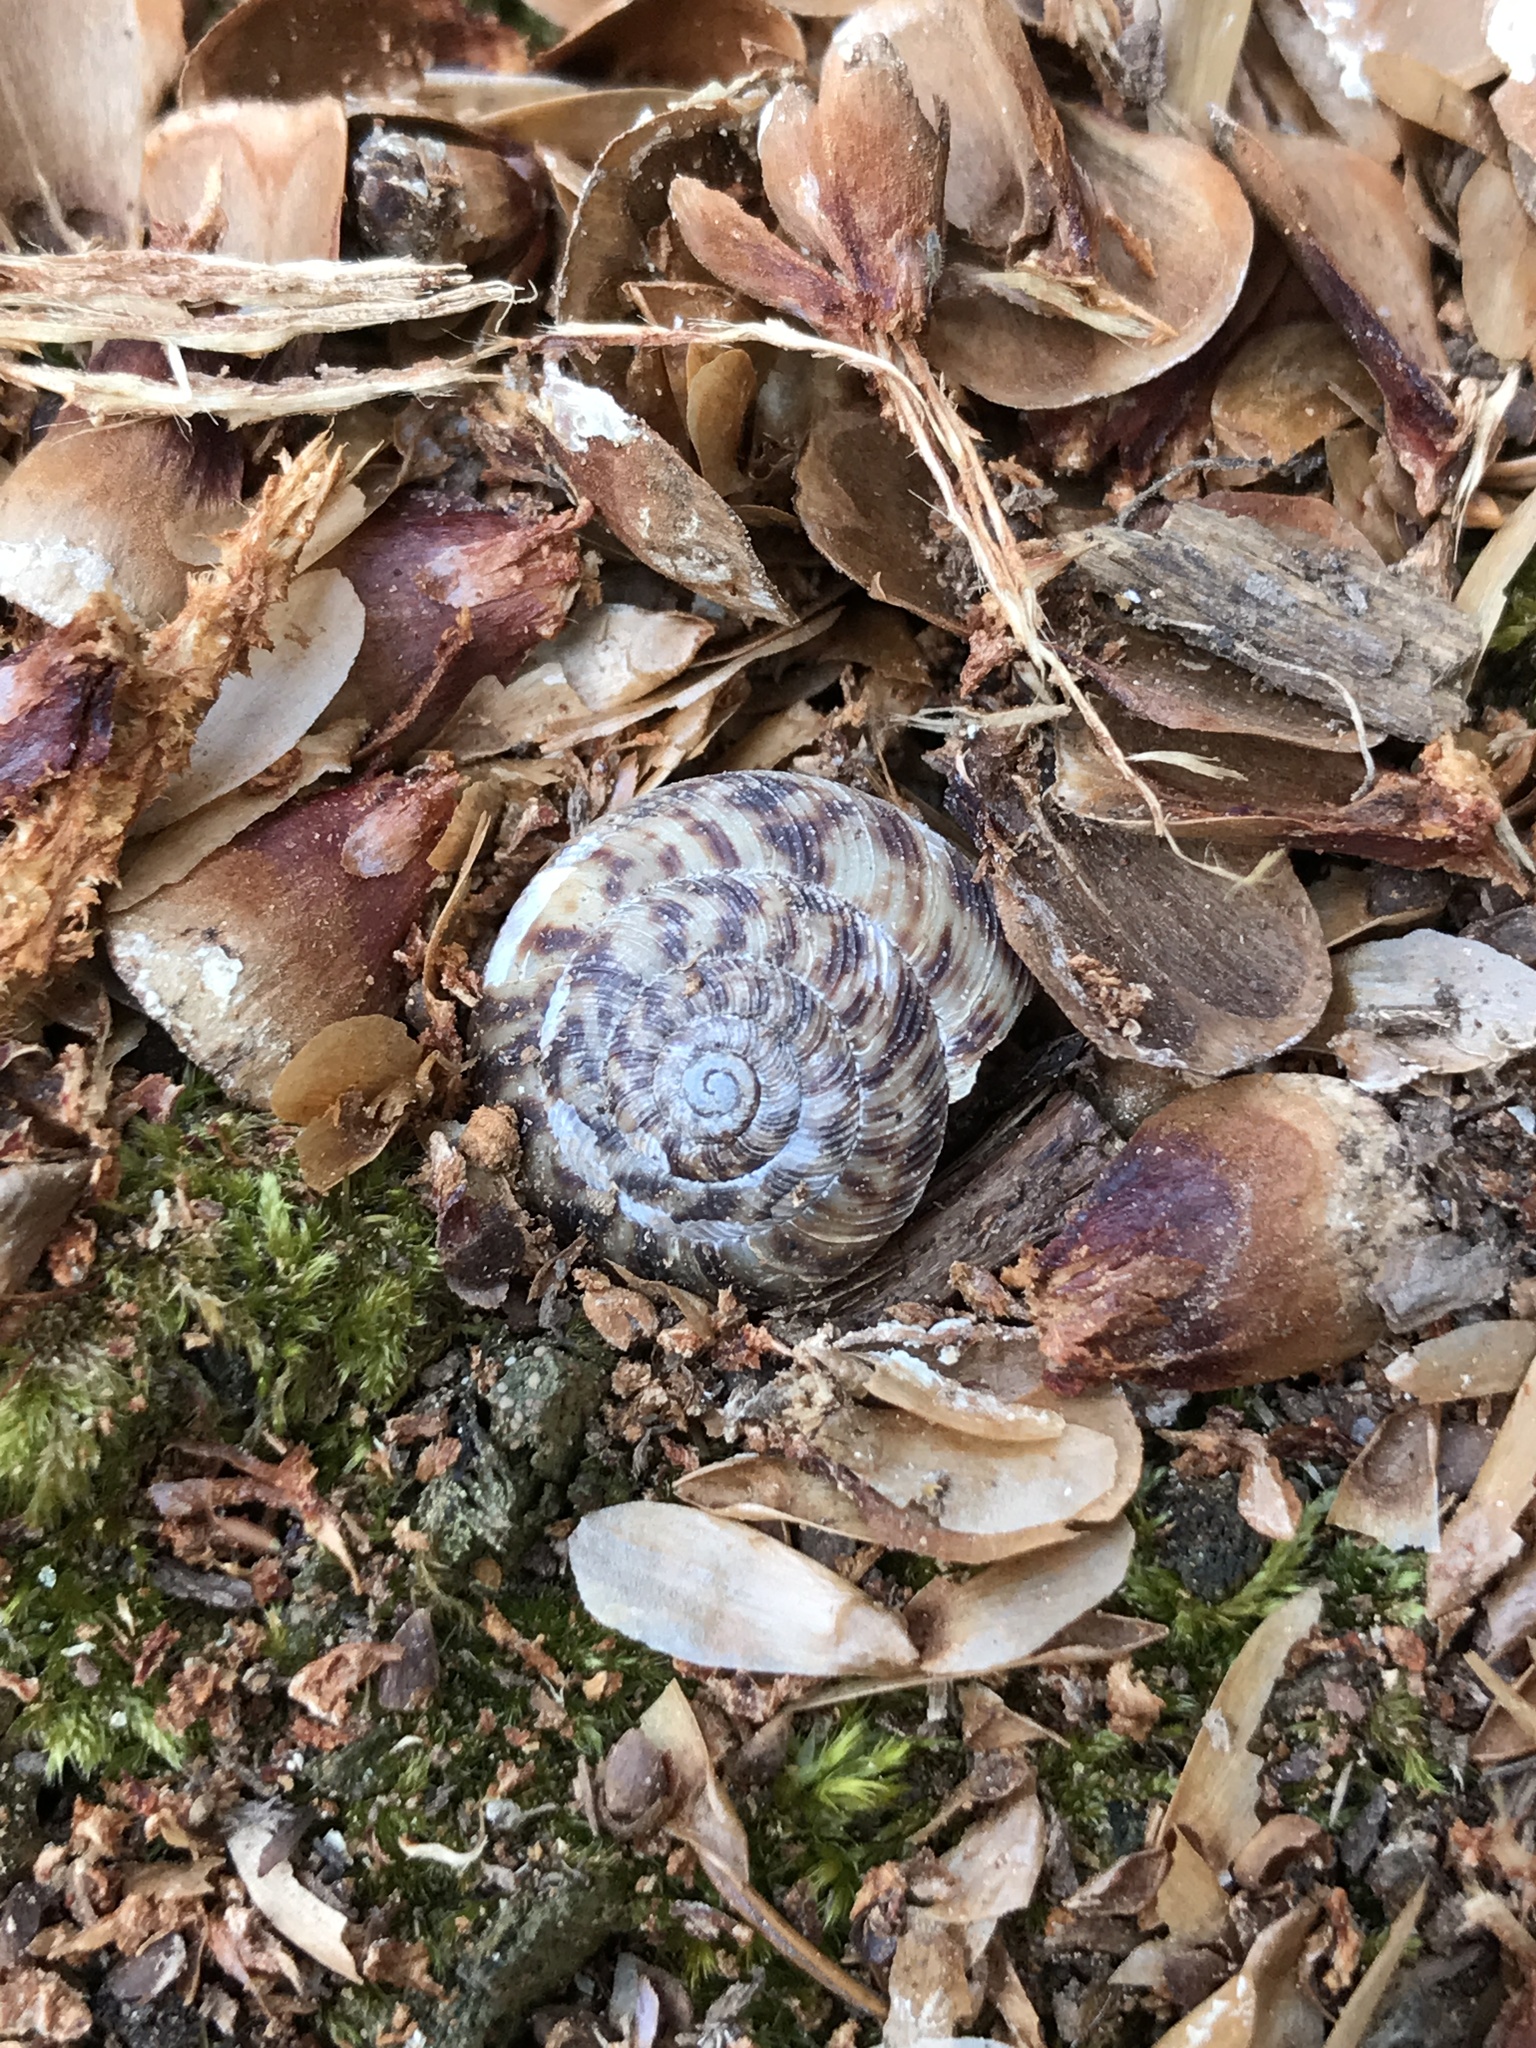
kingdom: Animalia
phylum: Mollusca
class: Gastropoda
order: Stylommatophora
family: Discidae
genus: Anguispira
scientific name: Anguispira alternata
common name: Flamed tigersnail
